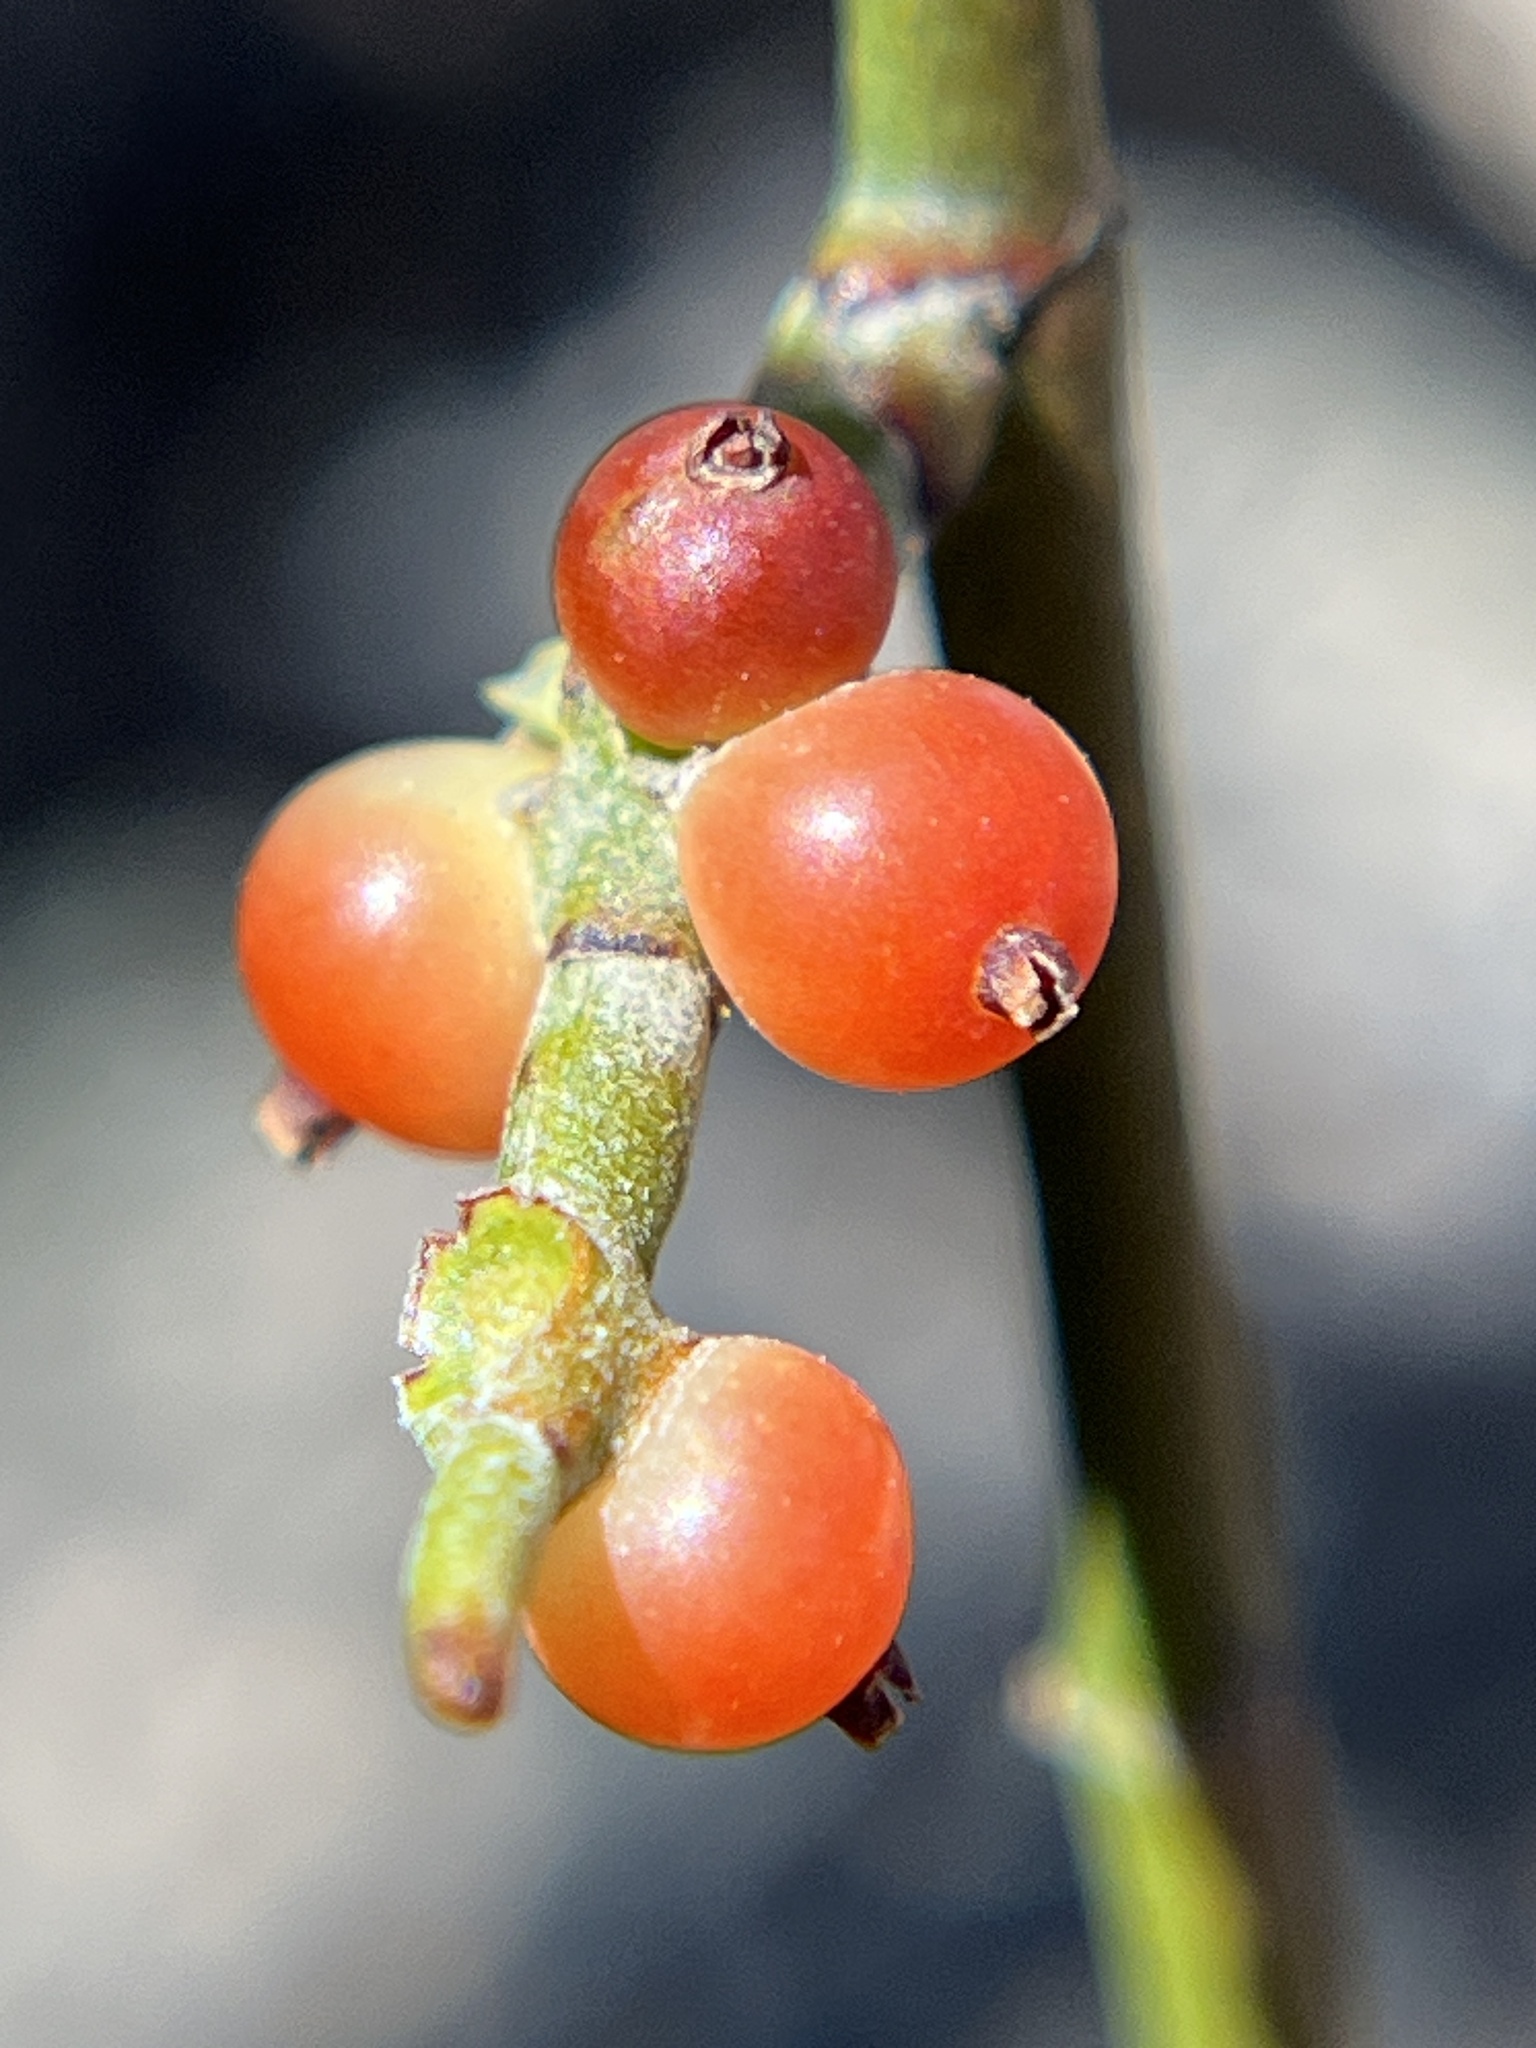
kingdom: Plantae
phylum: Tracheophyta
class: Magnoliopsida
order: Santalales
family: Viscaceae
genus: Phoradendron
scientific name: Phoradendron californicum
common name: Acacia mistletoe
